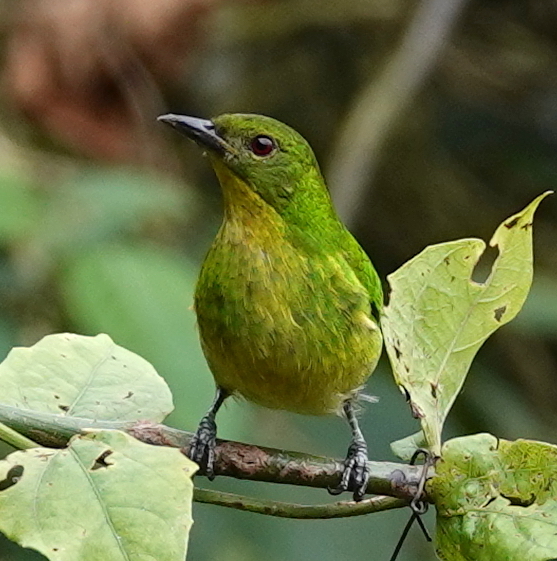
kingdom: Animalia
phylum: Chordata
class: Aves
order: Passeriformes
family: Thraupidae
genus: Chlorophanes
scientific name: Chlorophanes spiza
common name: Green honeycreeper
